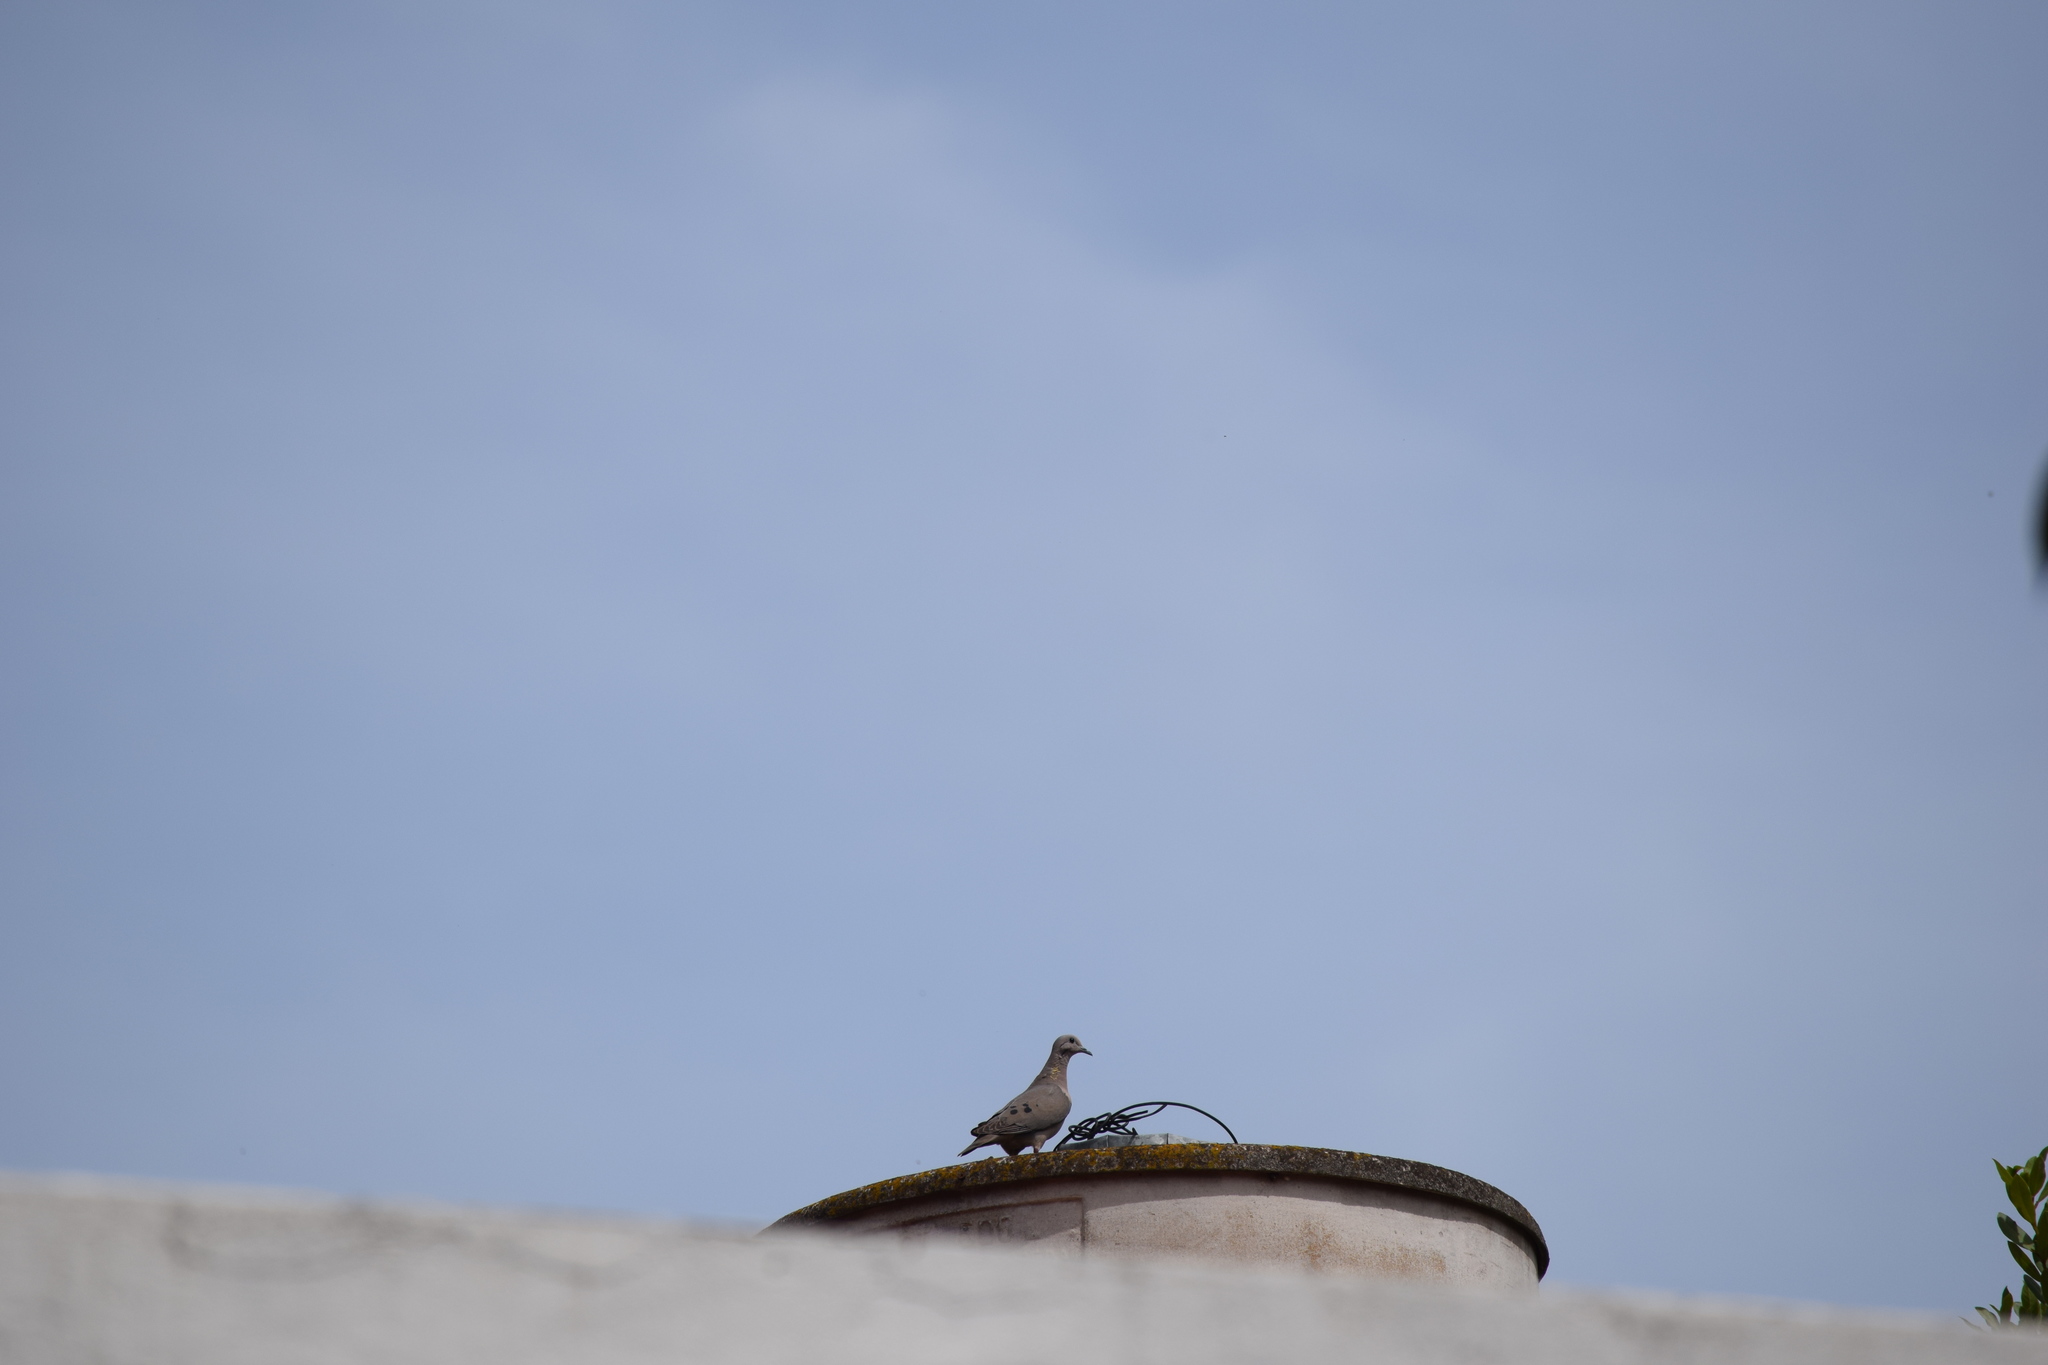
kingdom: Animalia
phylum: Chordata
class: Aves
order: Columbiformes
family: Columbidae
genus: Zenaida
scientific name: Zenaida auriculata
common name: Eared dove
